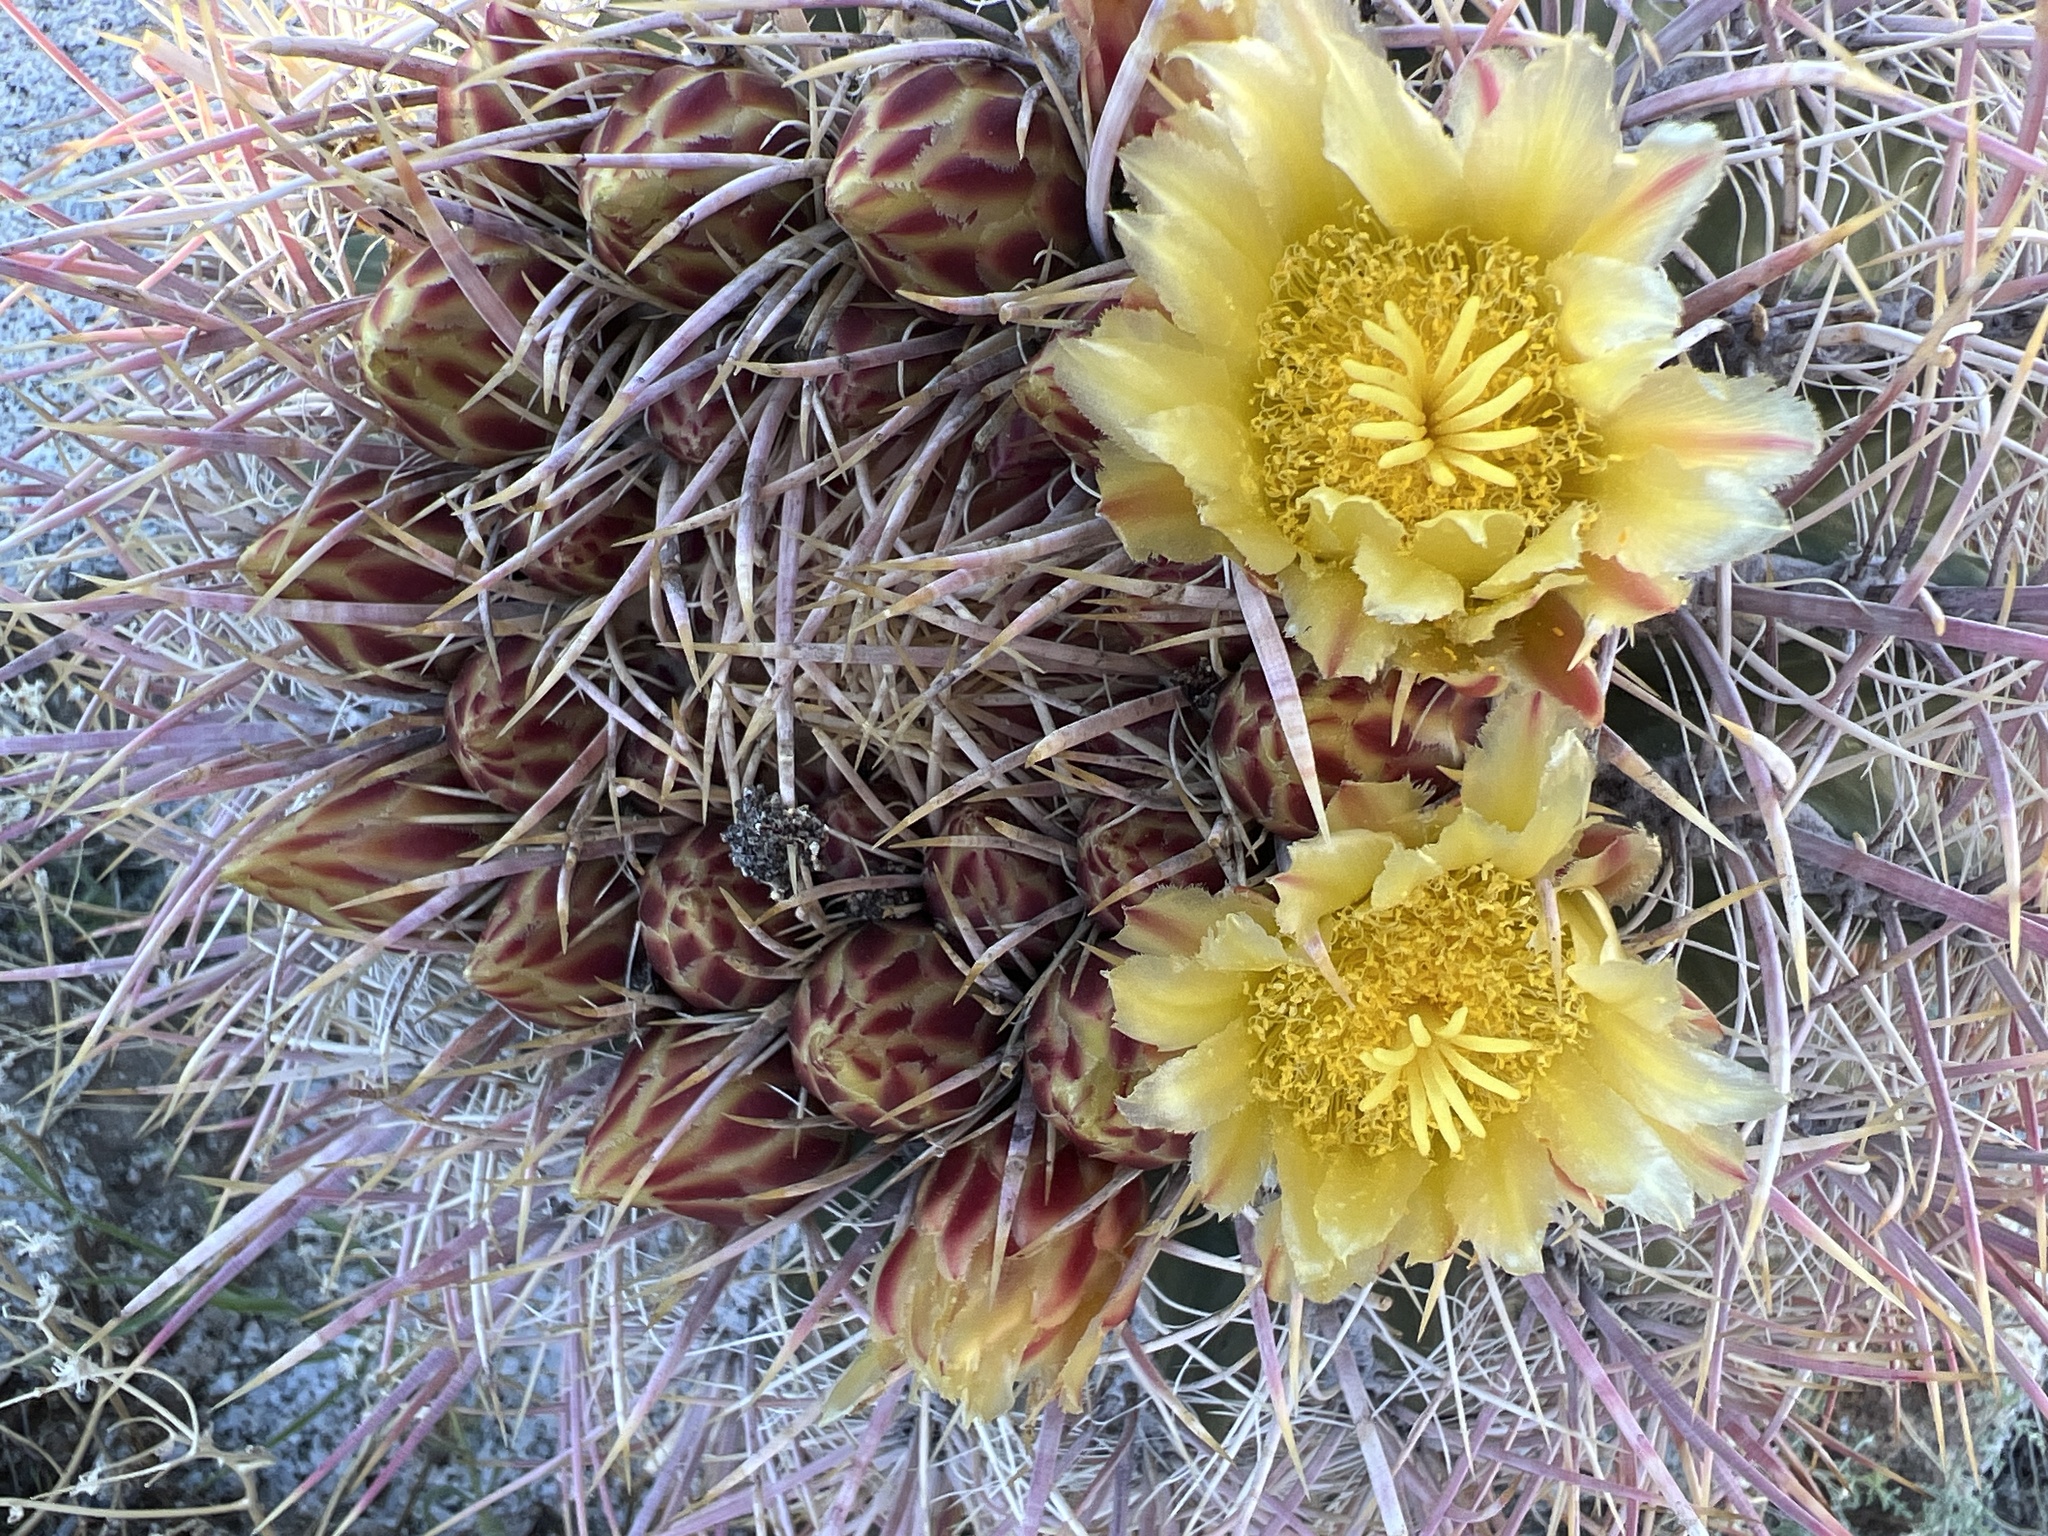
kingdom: Plantae
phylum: Tracheophyta
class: Magnoliopsida
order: Caryophyllales
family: Cactaceae
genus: Ferocactus
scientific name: Ferocactus cylindraceus
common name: California barrel cactus
